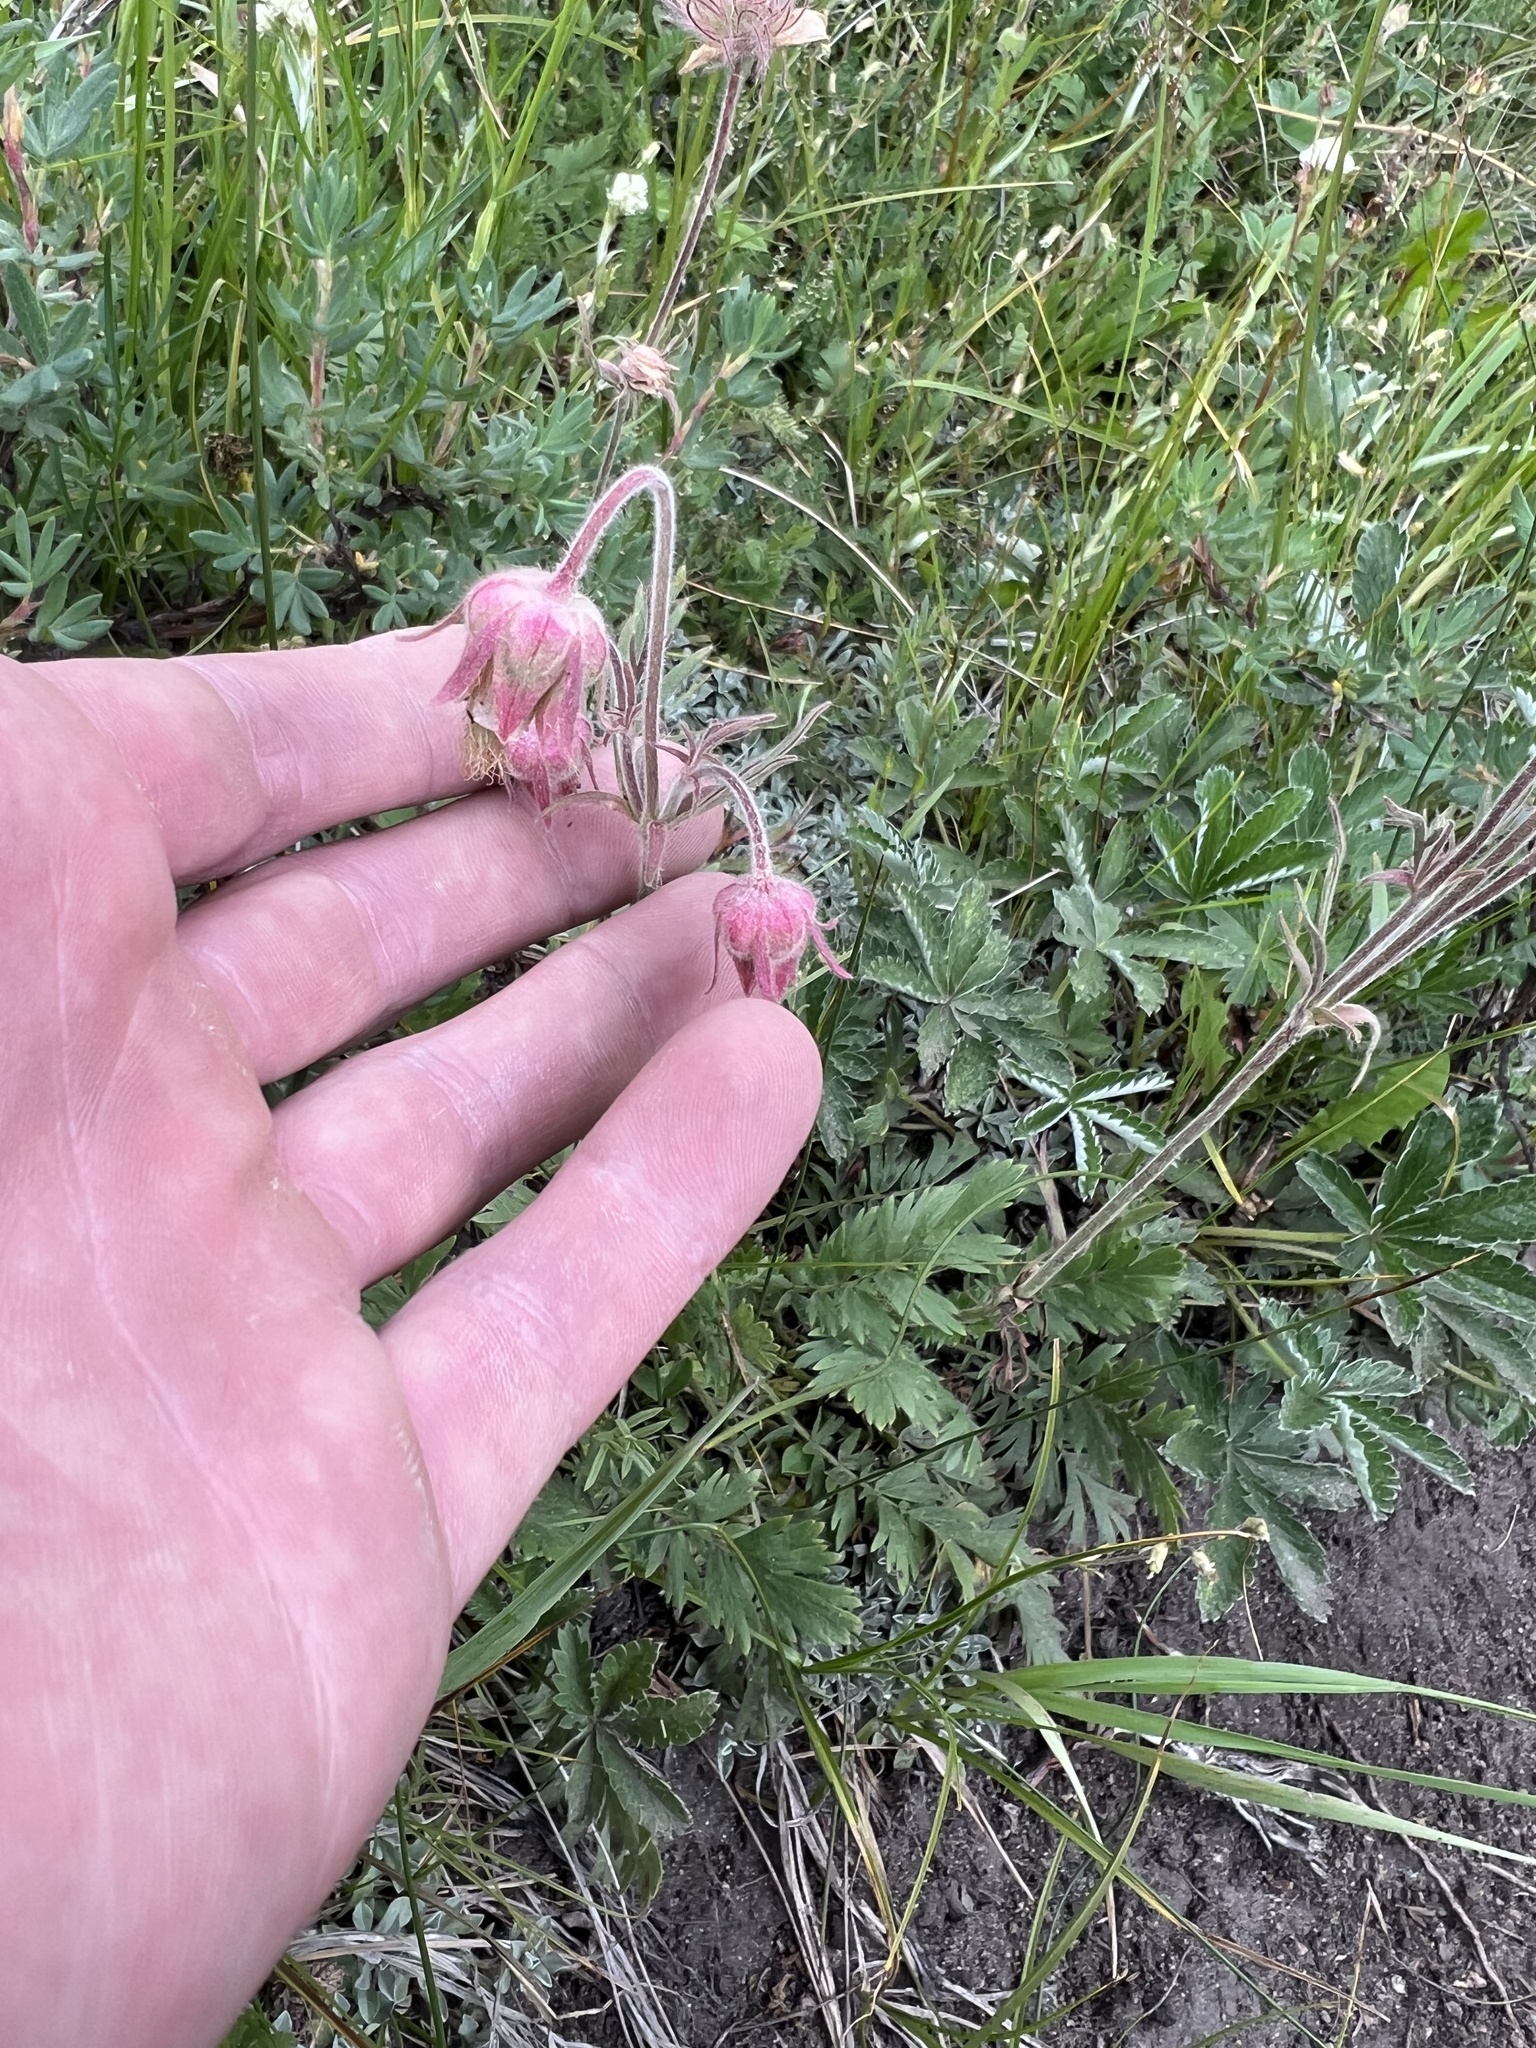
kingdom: Plantae
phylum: Tracheophyta
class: Magnoliopsida
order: Rosales
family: Rosaceae
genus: Geum
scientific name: Geum triflorum
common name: Old man's whiskers
